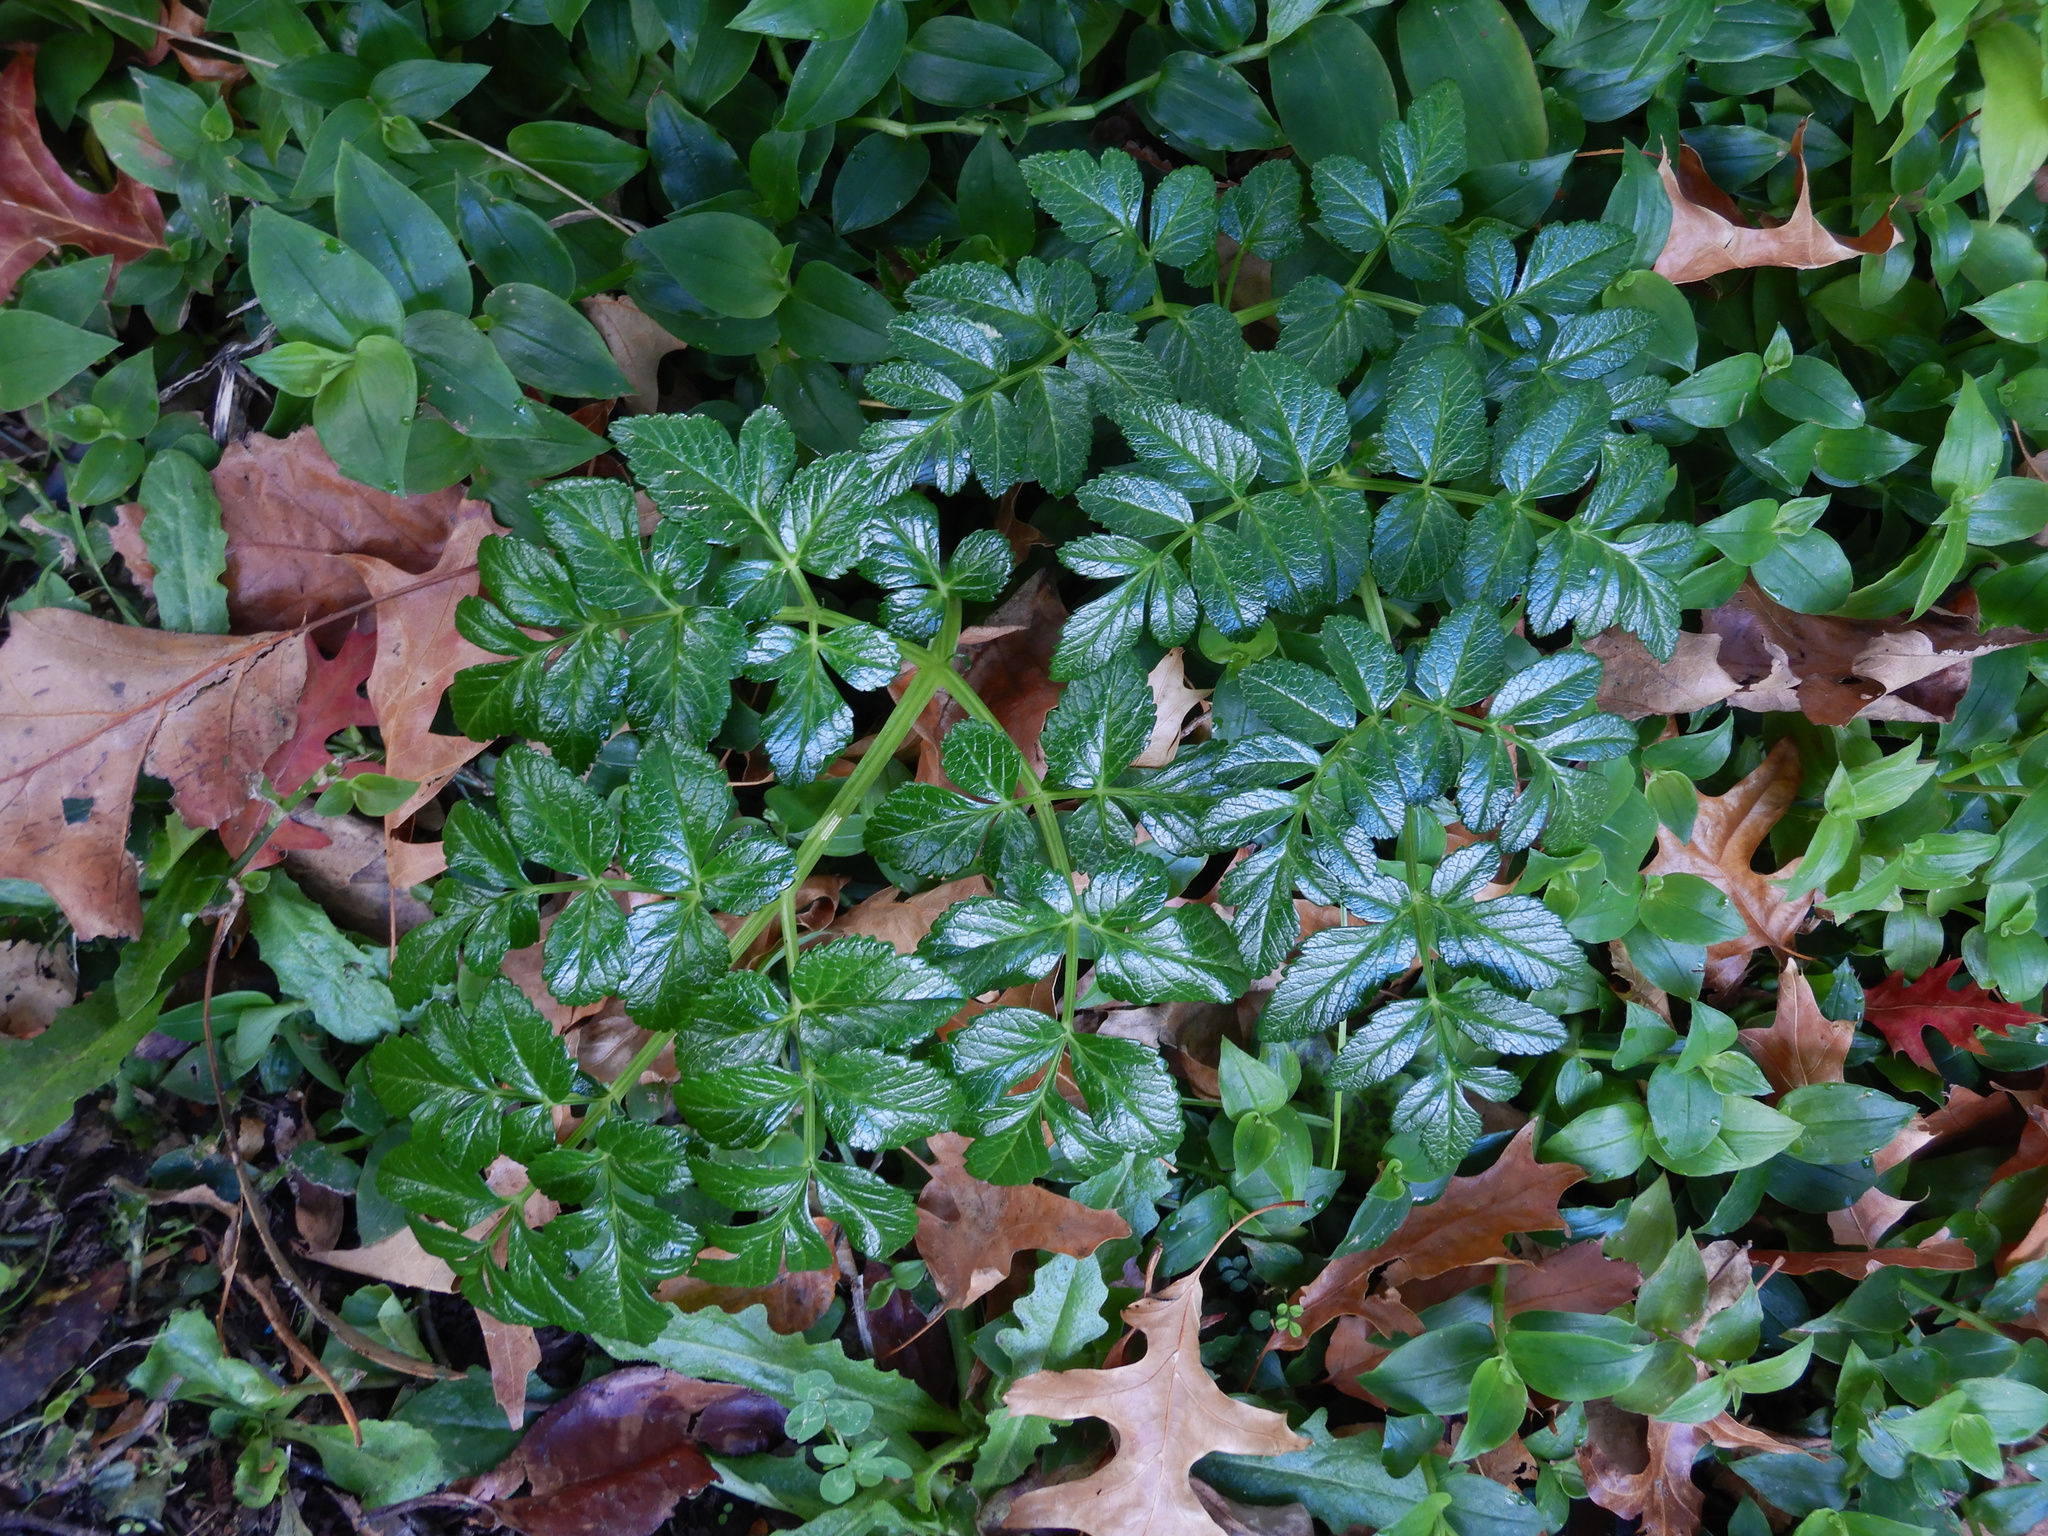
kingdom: Plantae
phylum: Tracheophyta
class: Magnoliopsida
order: Apiales
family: Apiaceae
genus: Angelica
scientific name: Angelica pachycarpa
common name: Portuguese angelica
